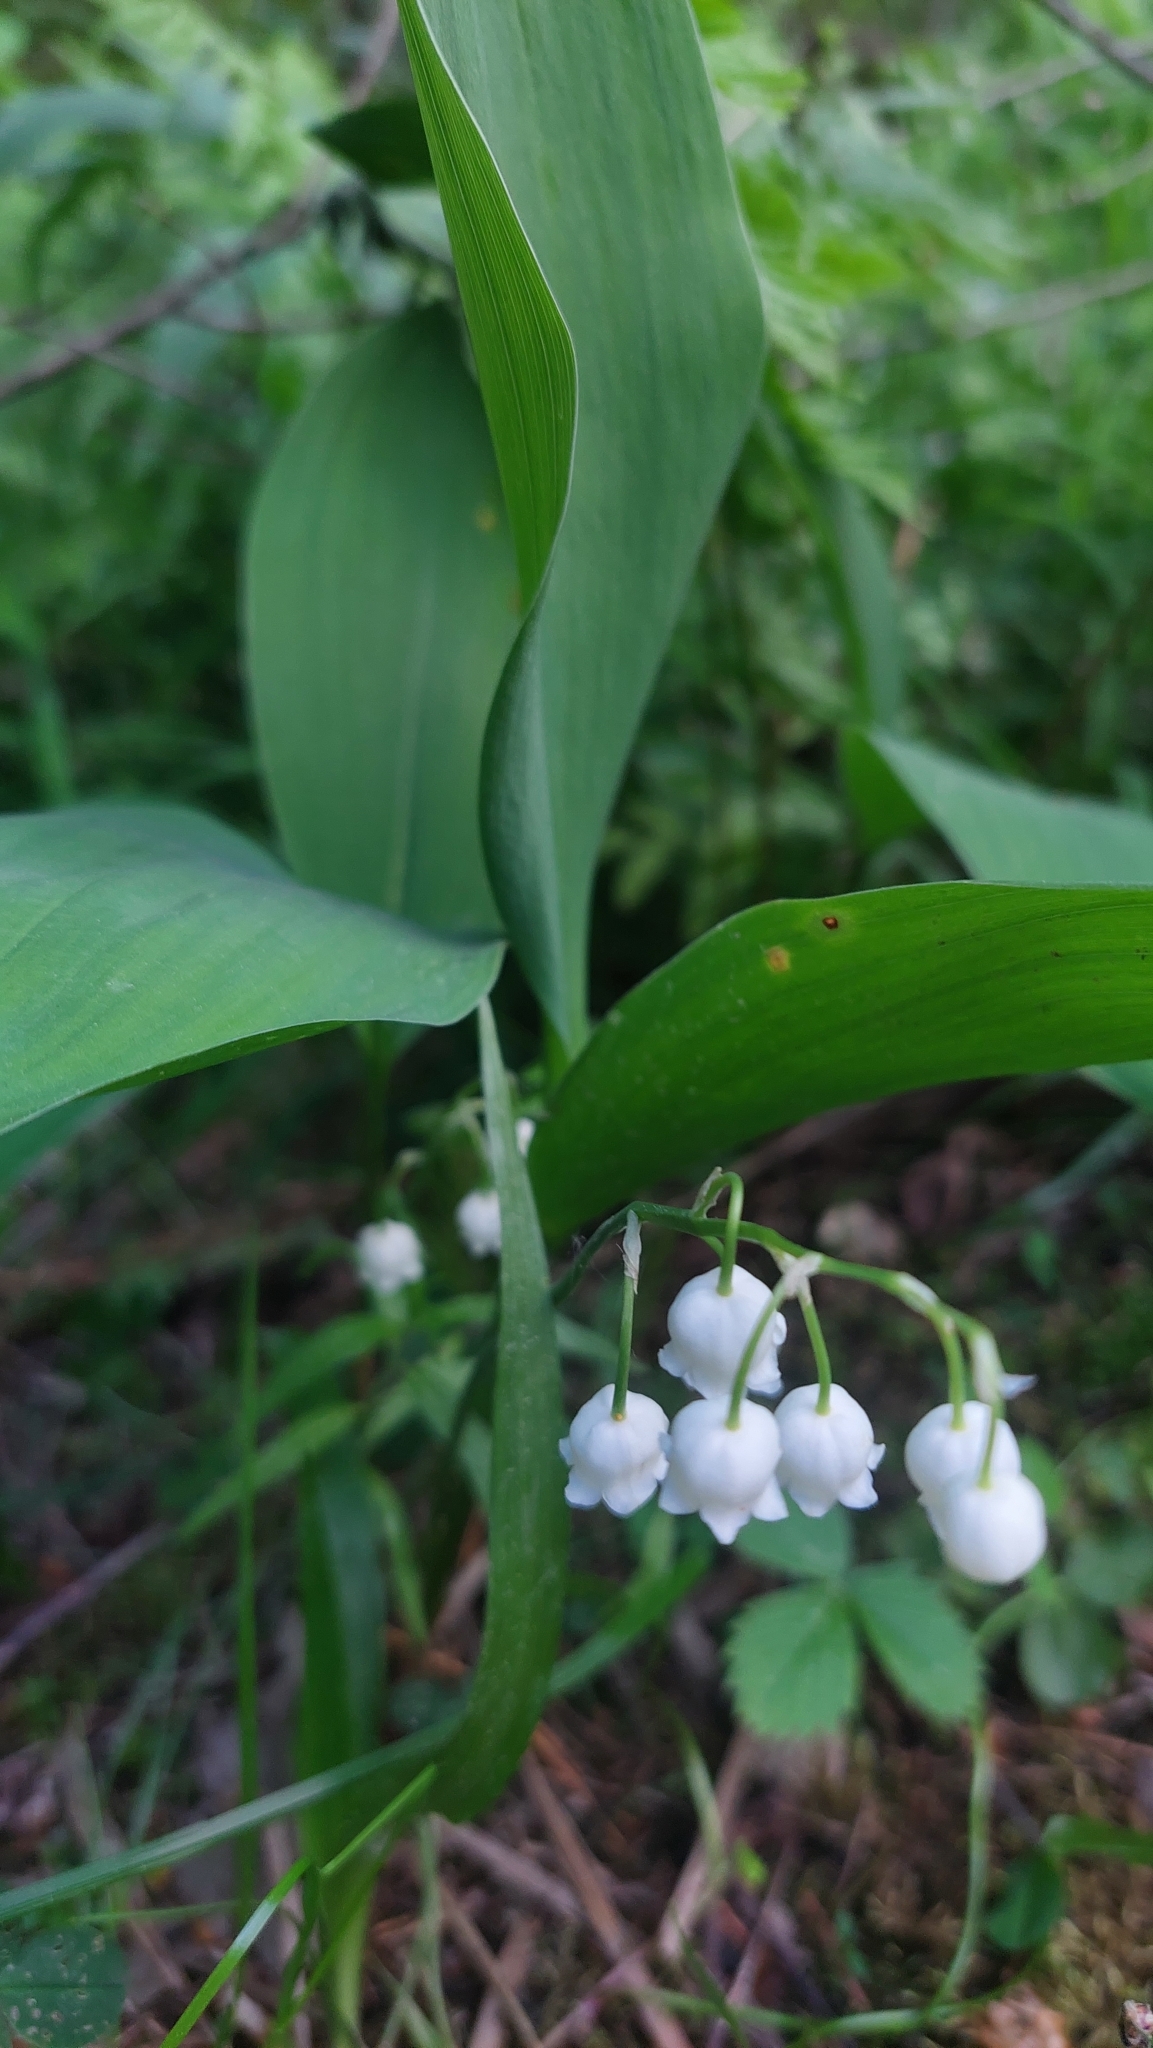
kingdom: Plantae
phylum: Tracheophyta
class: Liliopsida
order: Asparagales
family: Asparagaceae
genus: Convallaria
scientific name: Convallaria majalis
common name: Lily-of-the-valley
